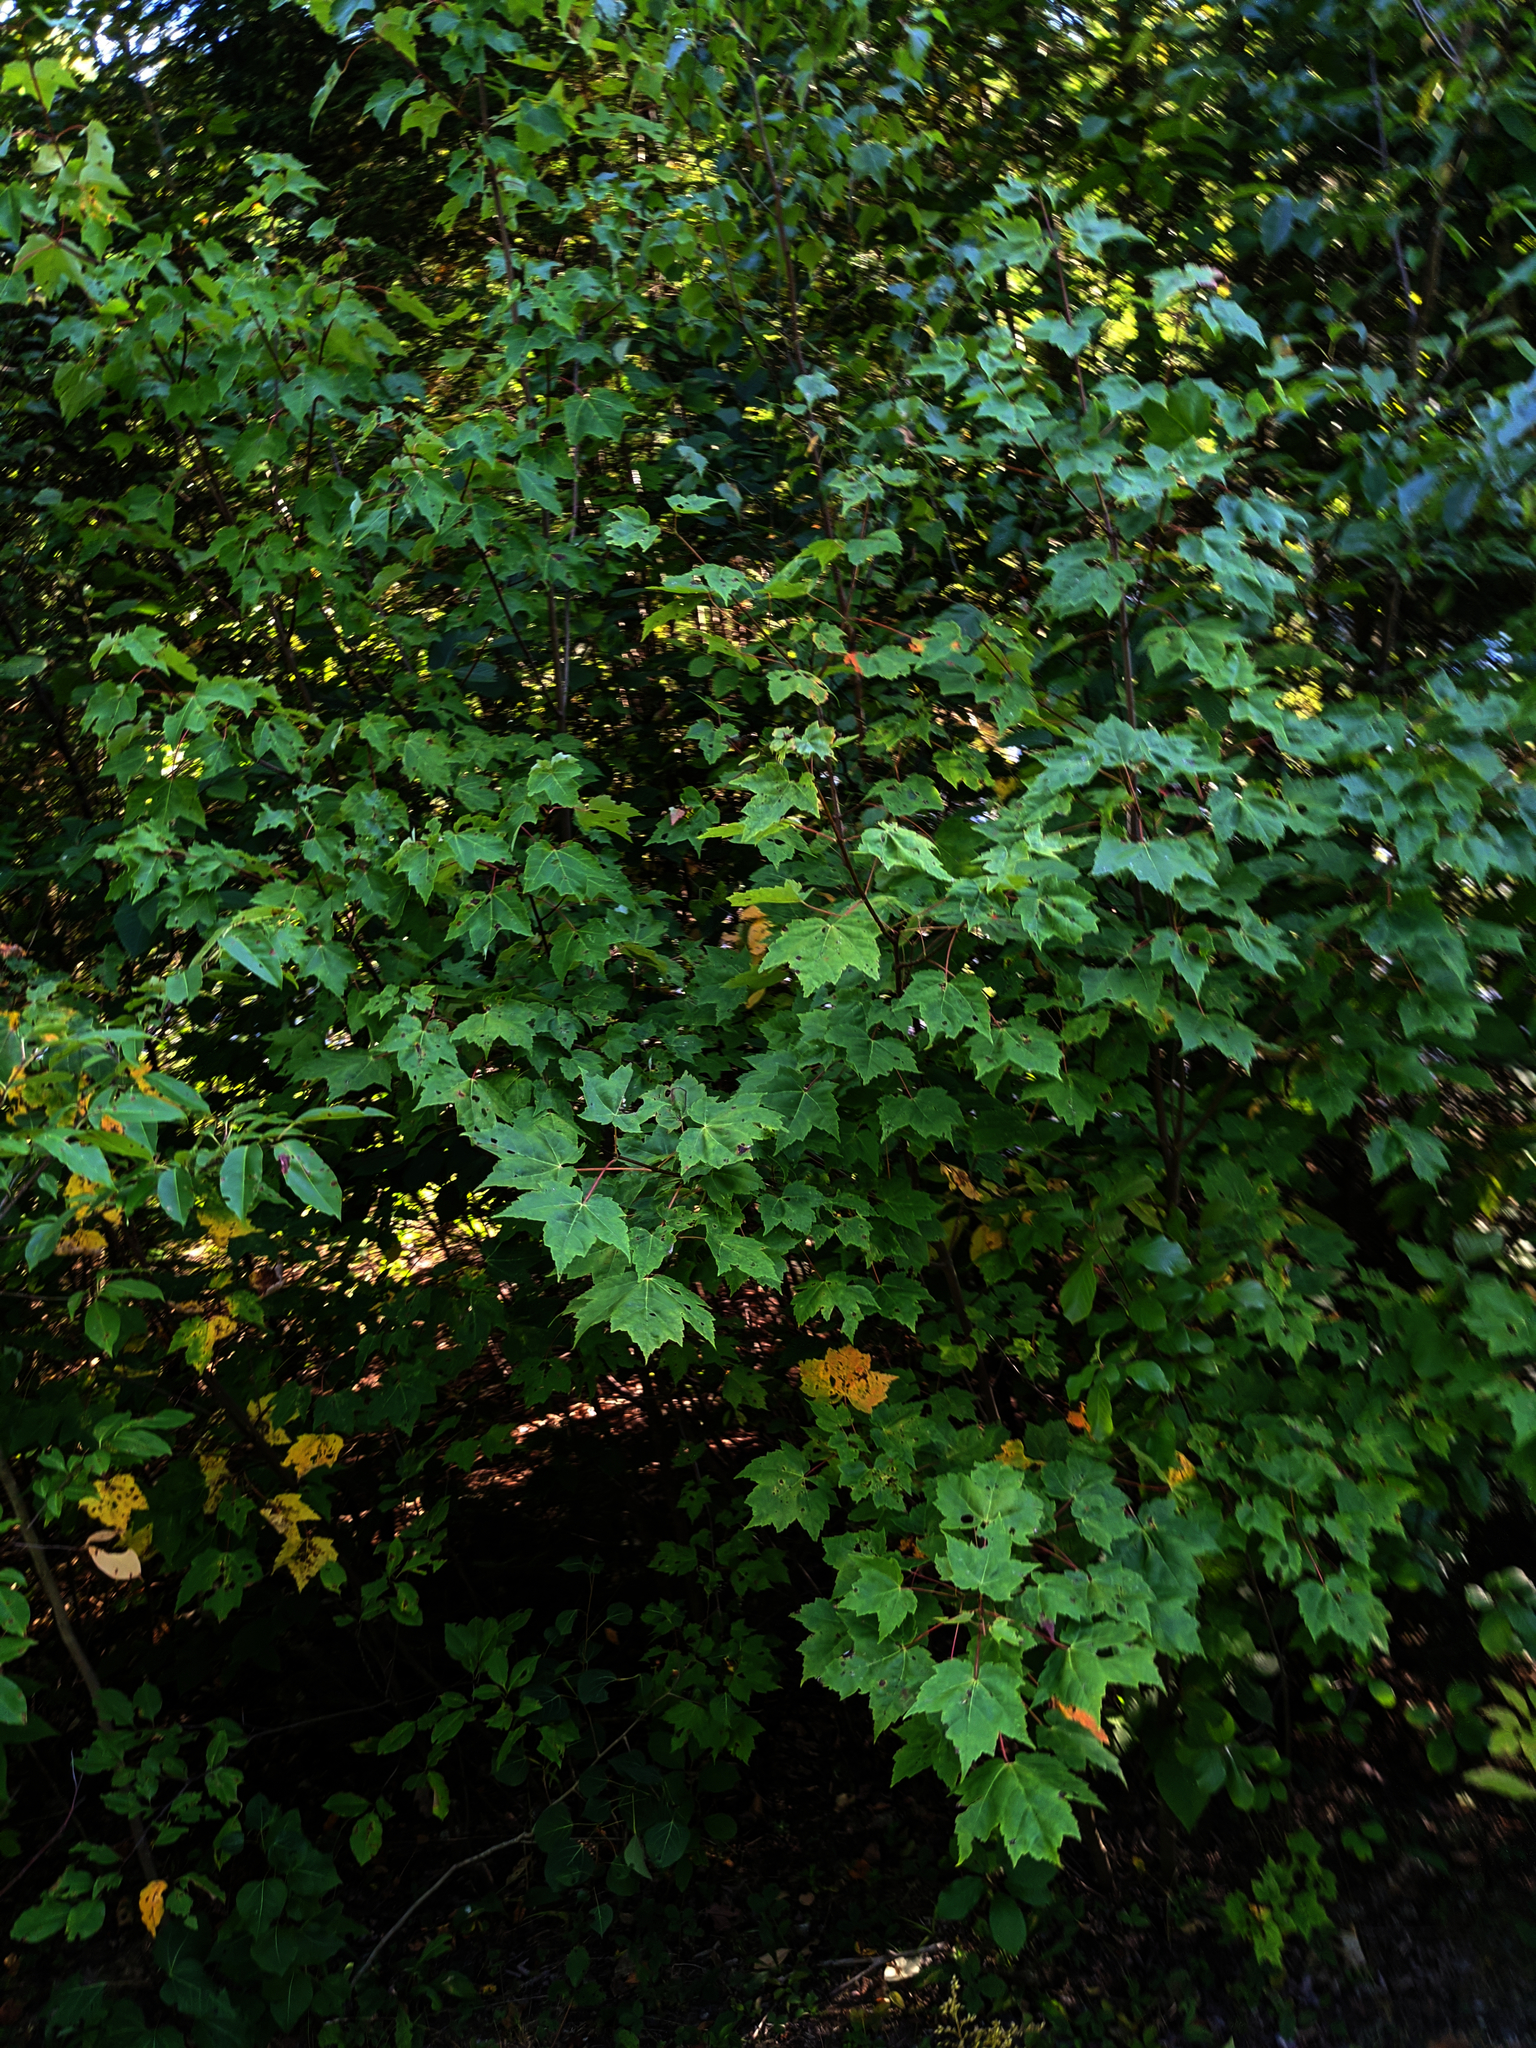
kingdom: Plantae
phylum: Tracheophyta
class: Magnoliopsida
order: Sapindales
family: Sapindaceae
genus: Acer
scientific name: Acer rubrum
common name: Red maple
